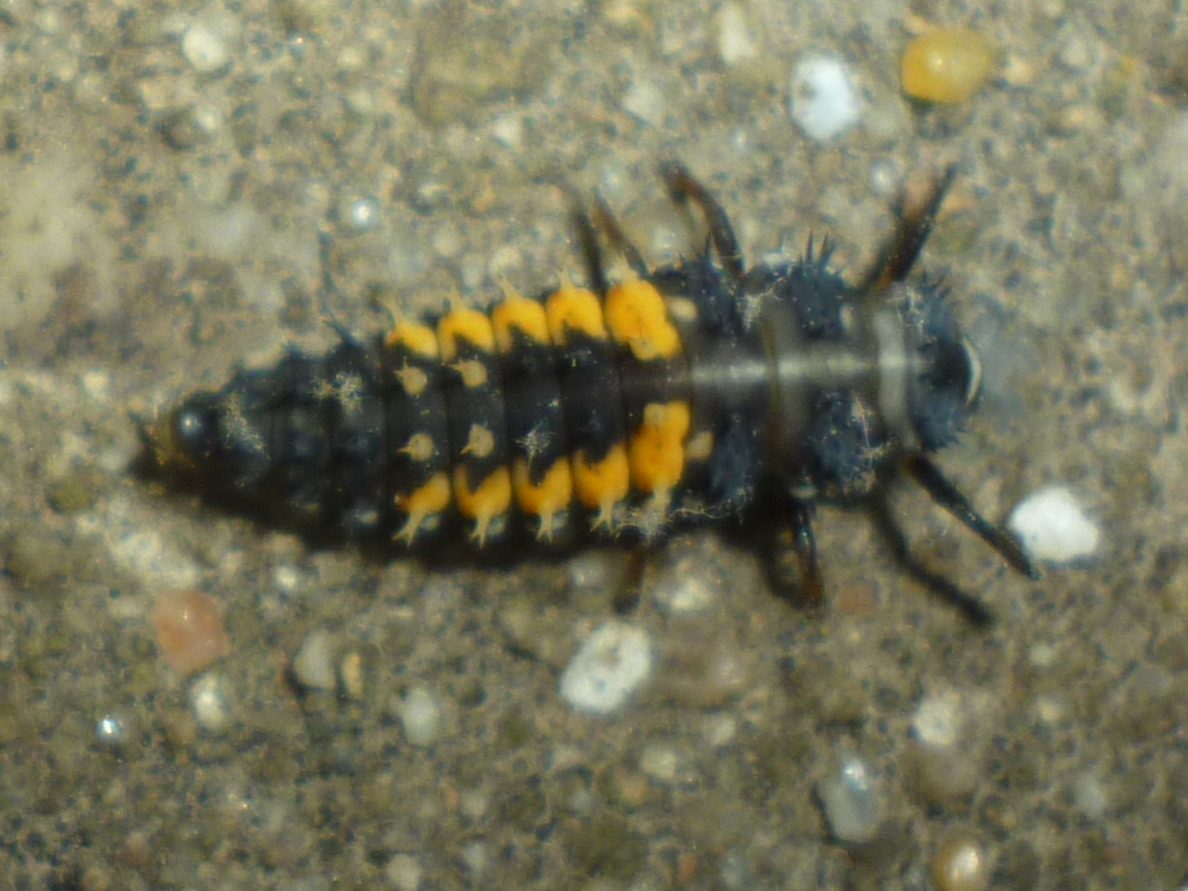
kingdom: Animalia
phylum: Arthropoda
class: Insecta
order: Coleoptera
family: Coccinellidae
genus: Harmonia
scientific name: Harmonia axyridis
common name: Harlequin ladybird
